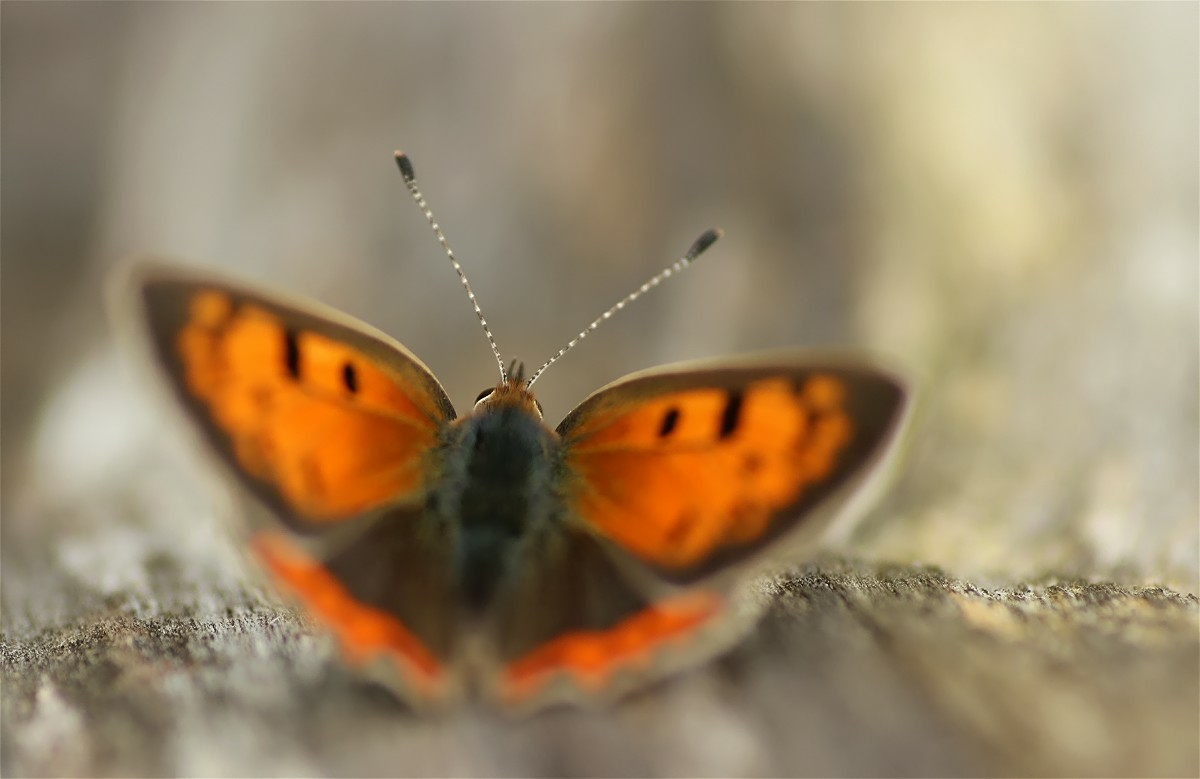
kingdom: Animalia
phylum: Arthropoda
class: Insecta
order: Lepidoptera
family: Lycaenidae
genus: Lycaena
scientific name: Lycaena phlaeas
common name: Small copper
